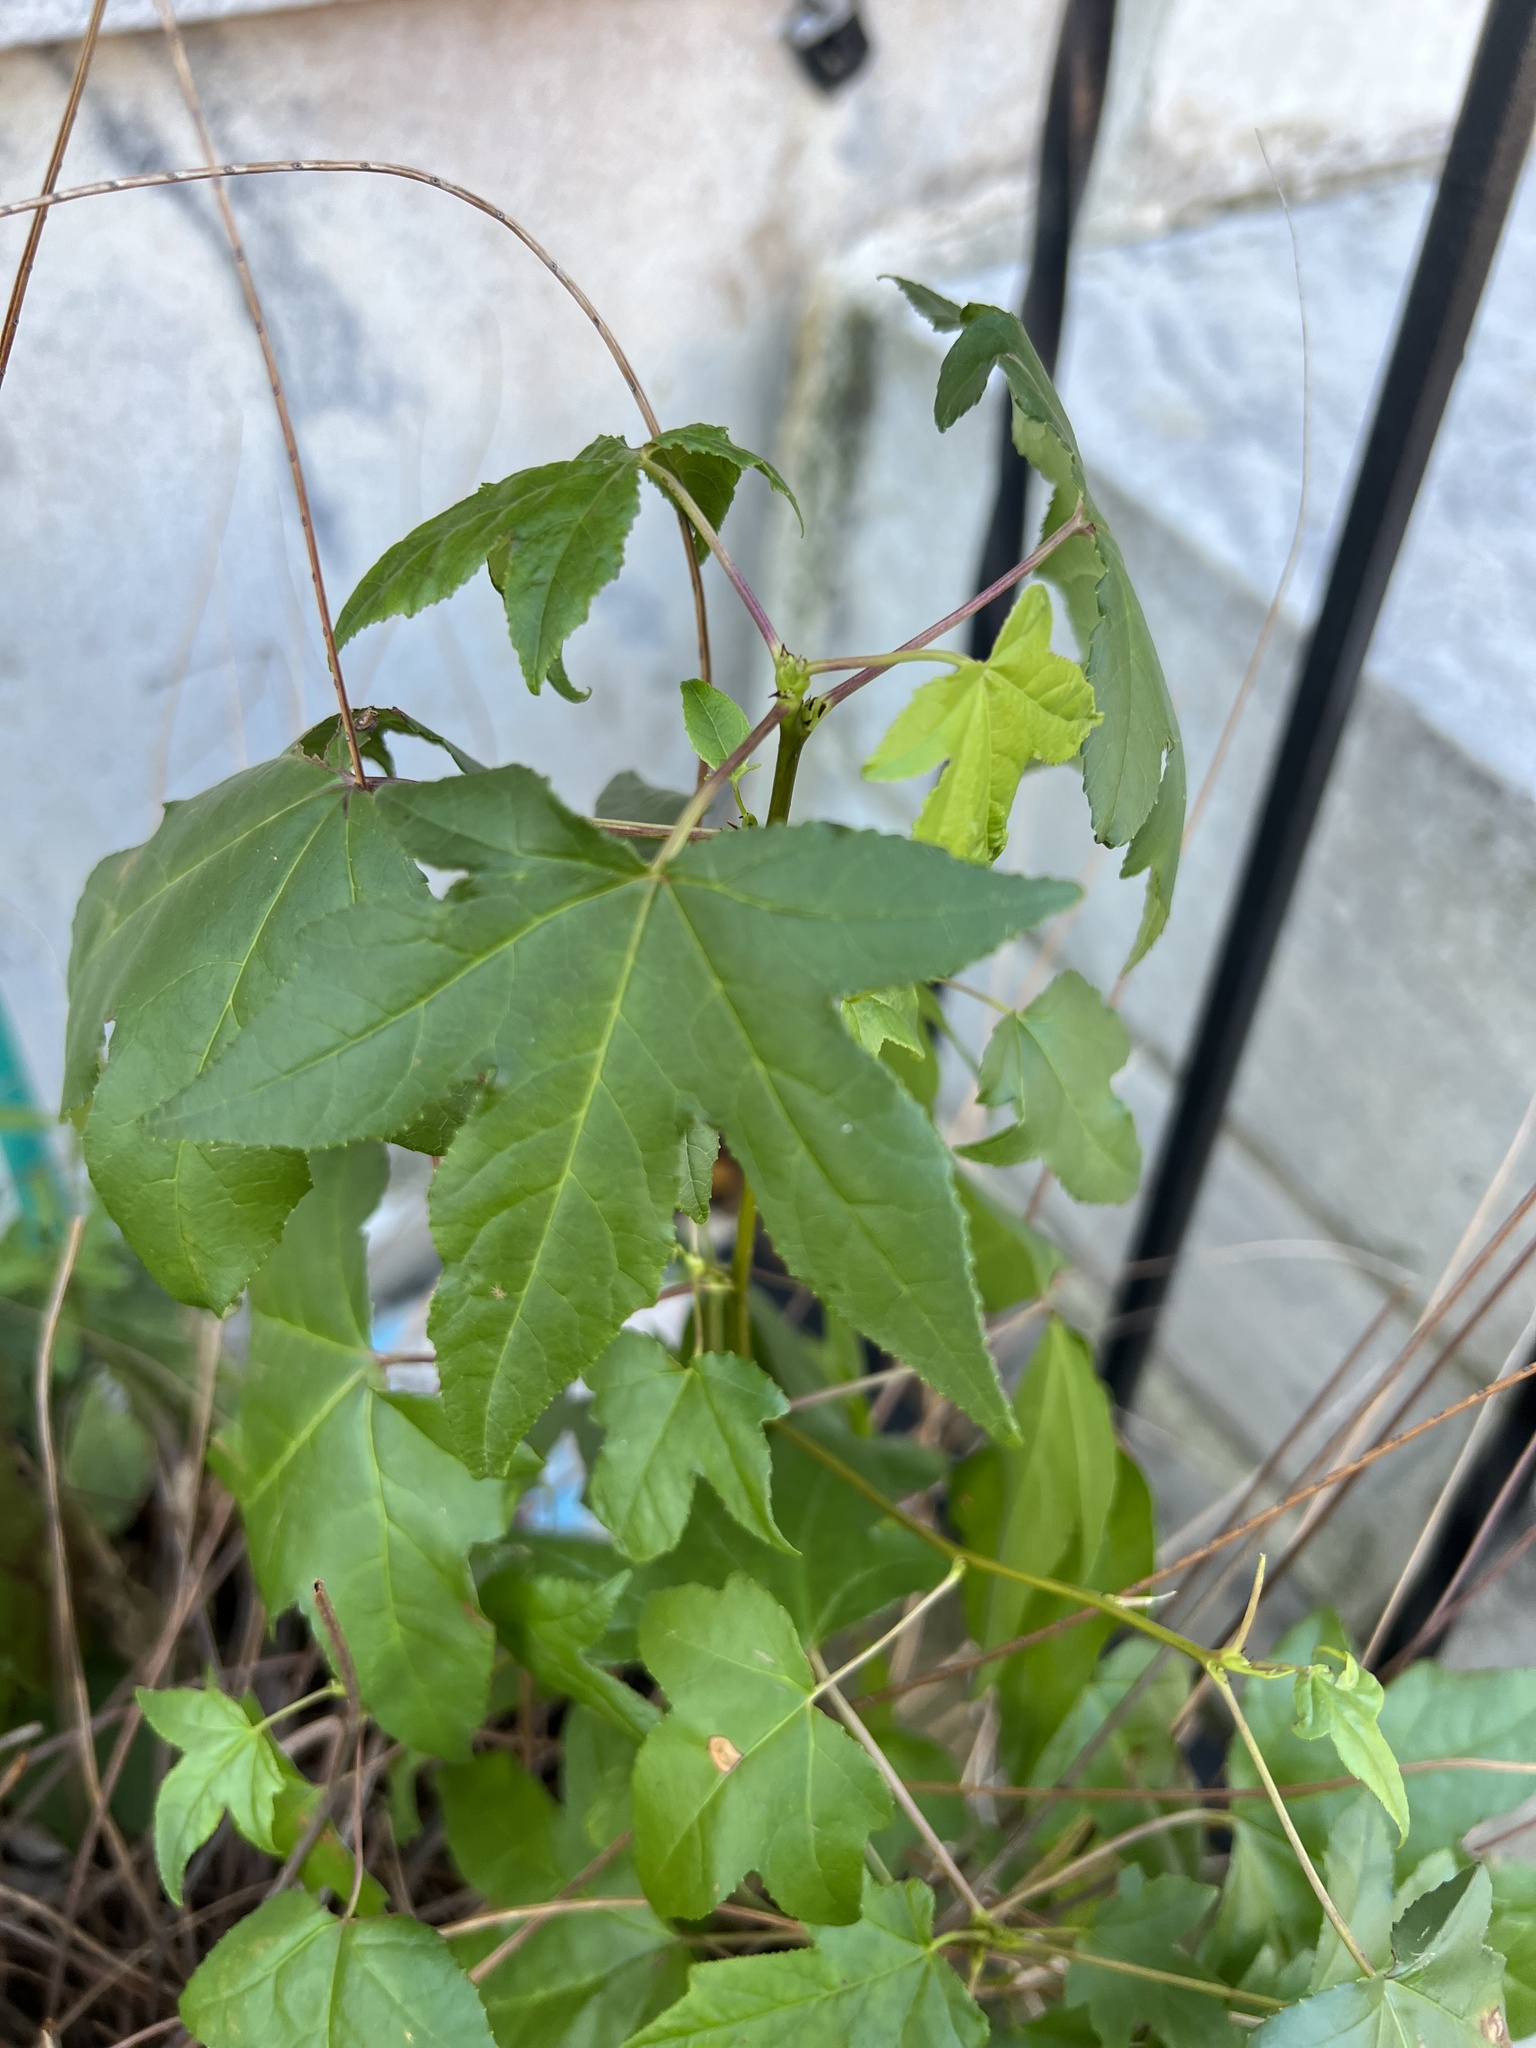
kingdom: Plantae
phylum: Tracheophyta
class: Magnoliopsida
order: Saxifragales
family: Altingiaceae
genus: Liquidambar
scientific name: Liquidambar styraciflua
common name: Sweet gum
